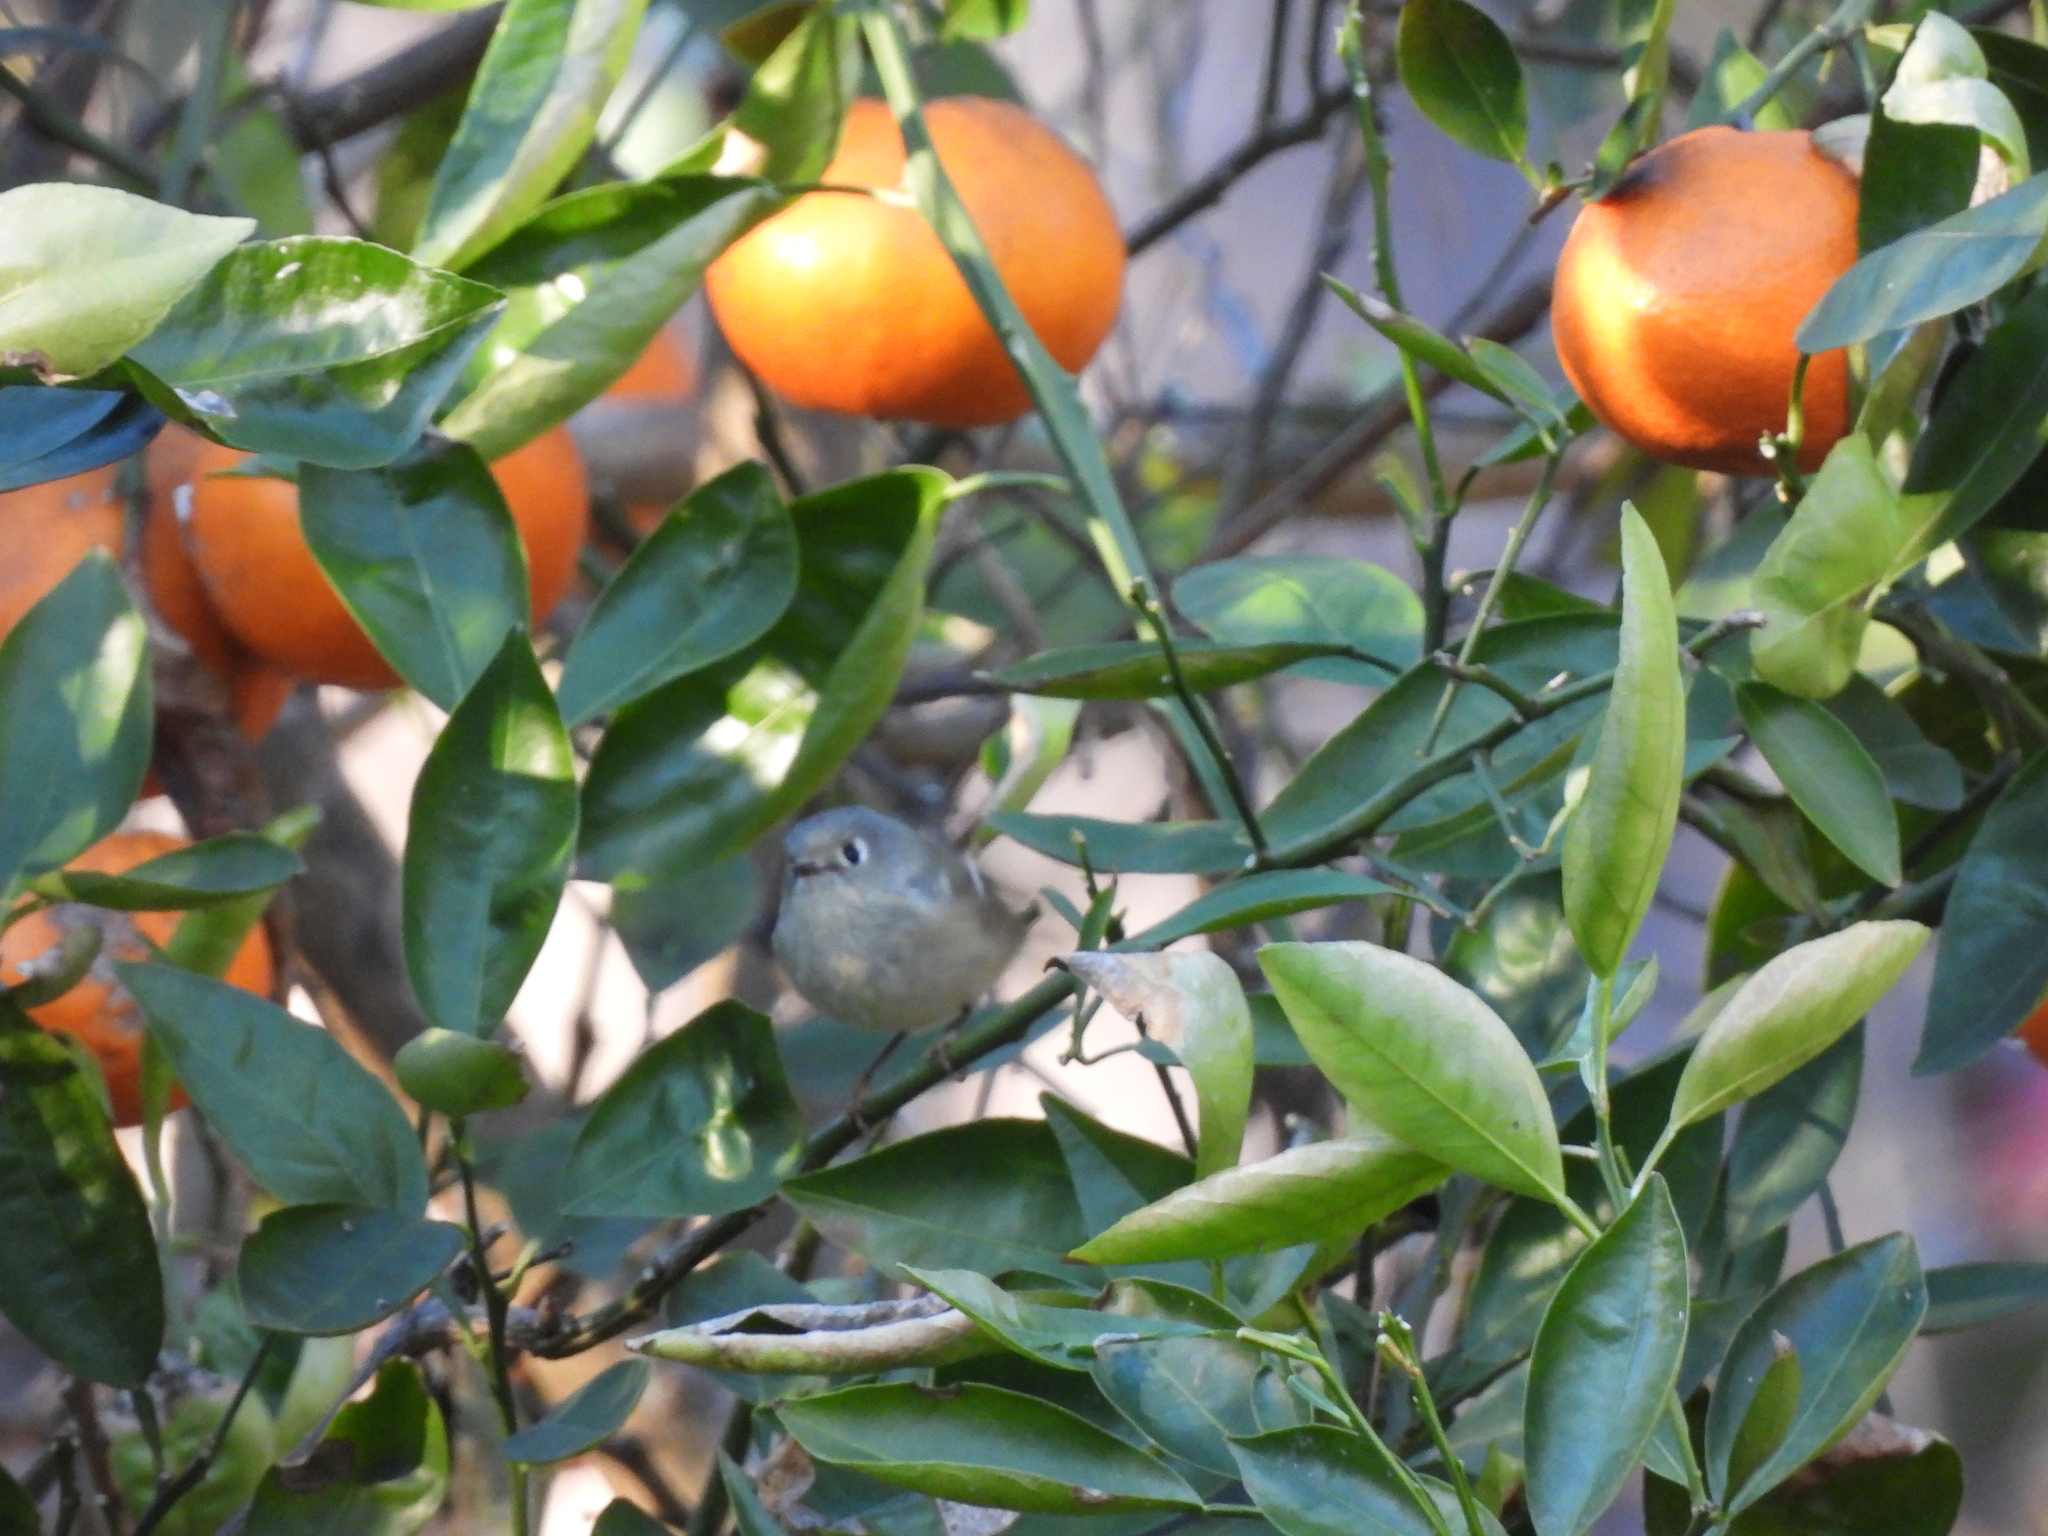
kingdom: Animalia
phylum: Chordata
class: Aves
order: Passeriformes
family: Regulidae
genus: Regulus
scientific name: Regulus calendula
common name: Ruby-crowned kinglet
